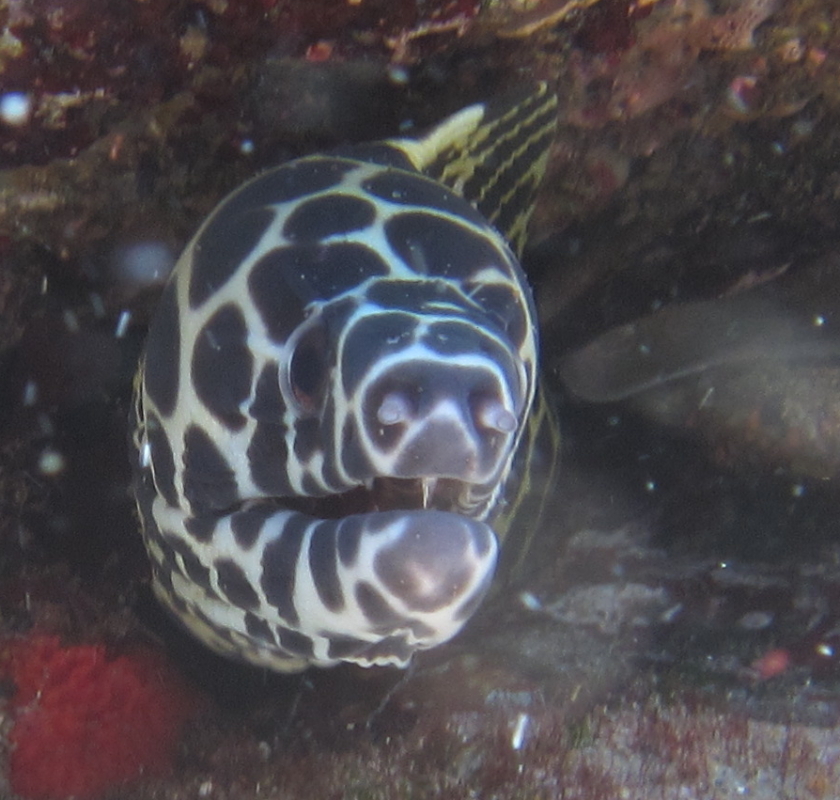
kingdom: Animalia
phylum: Chordata
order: Anguilliformes
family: Muraenidae
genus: Gymnothorax
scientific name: Gymnothorax favagineus
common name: Honeycomb moray
